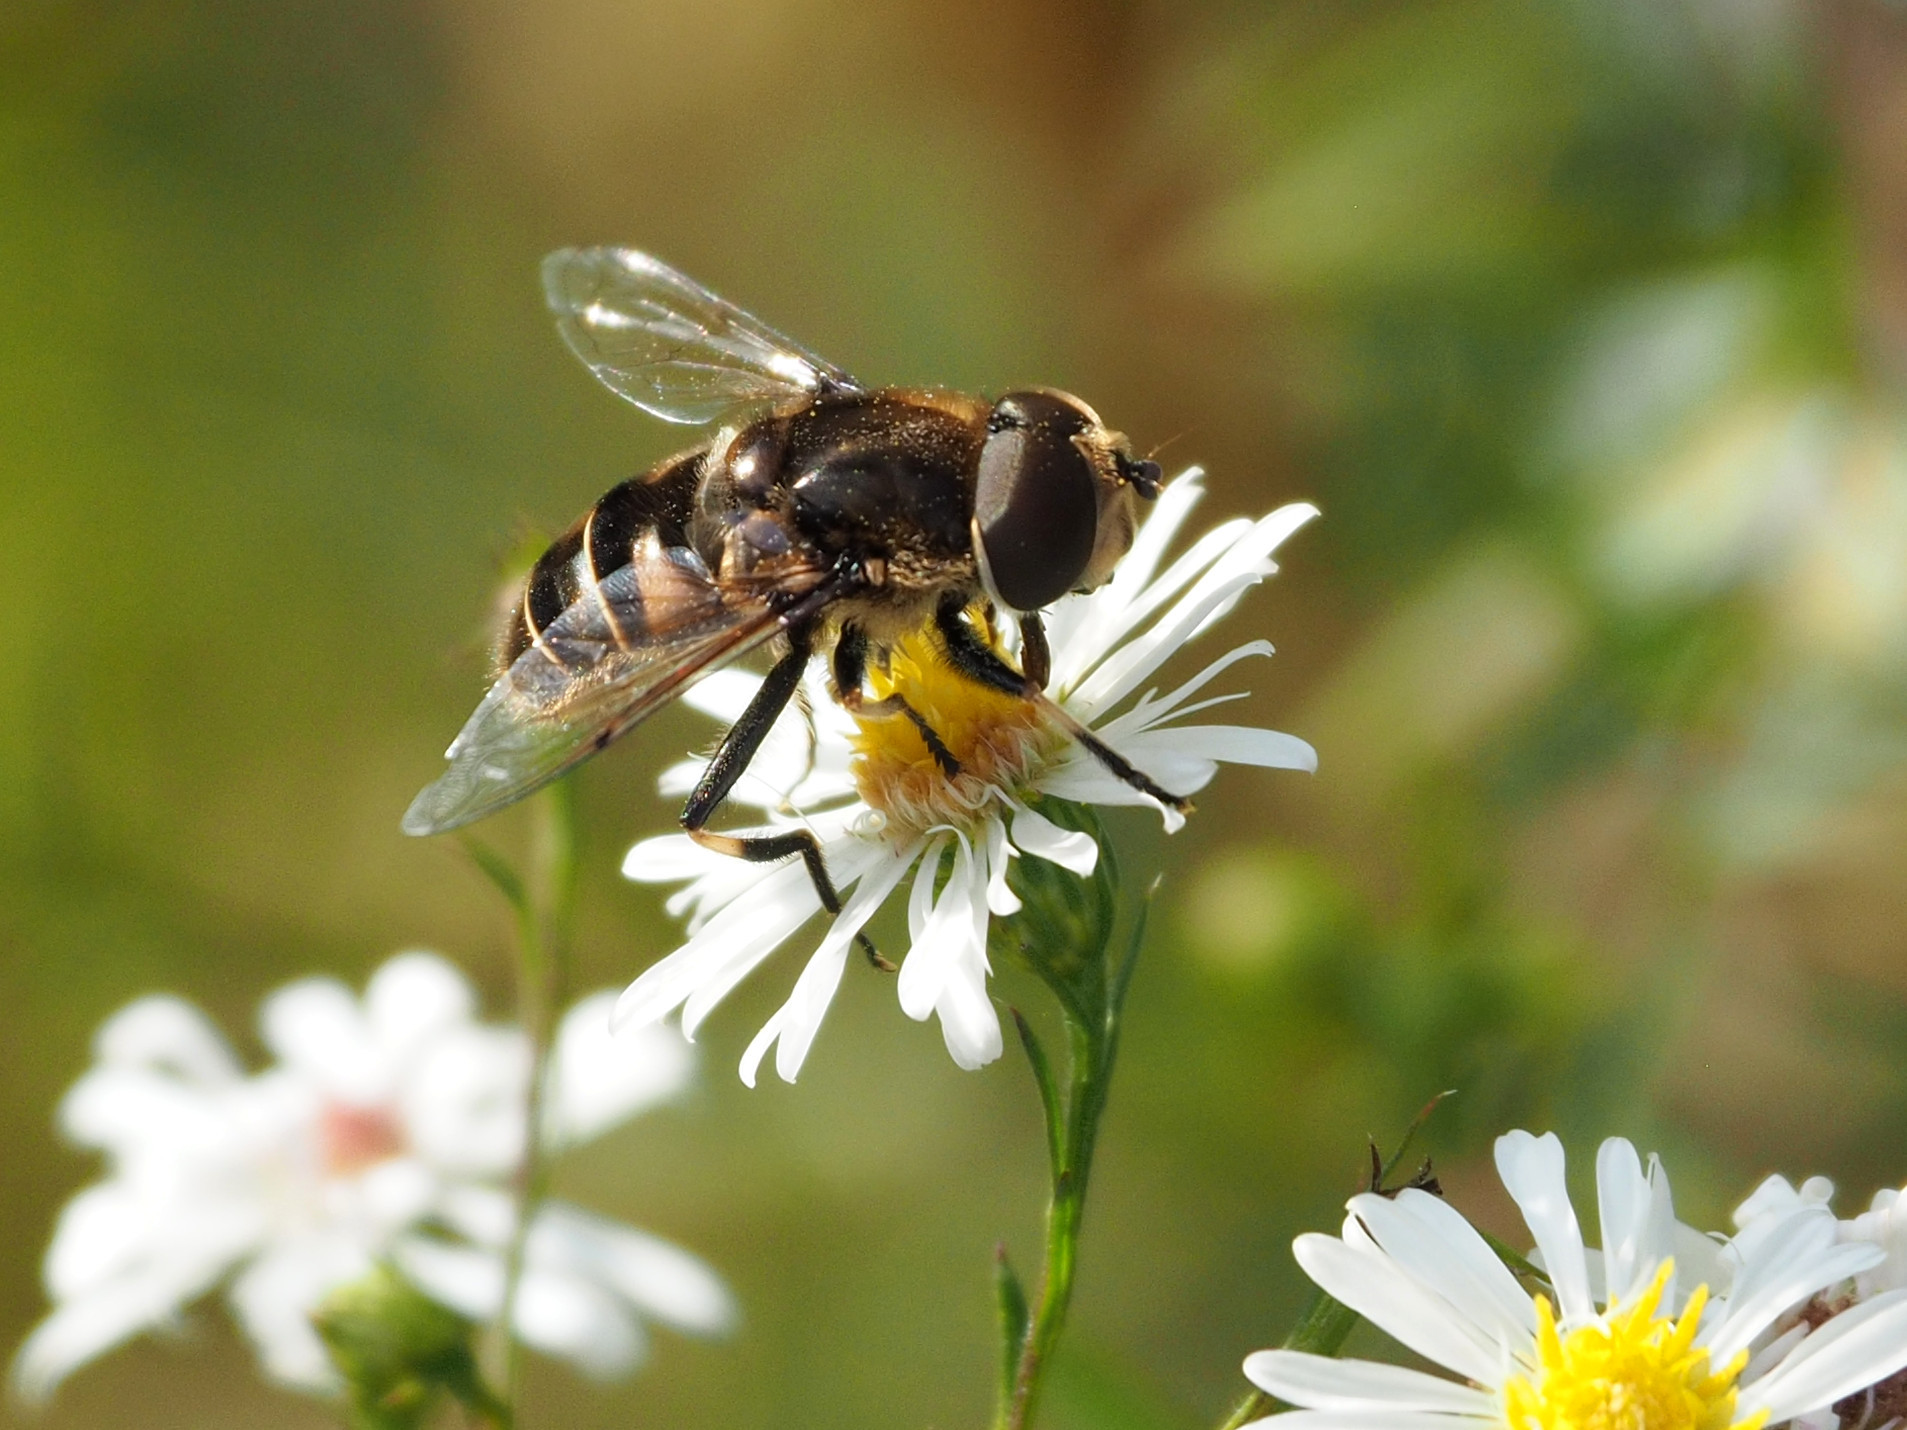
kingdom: Animalia
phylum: Arthropoda
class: Insecta
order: Diptera
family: Syrphidae
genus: Eristalis
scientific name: Eristalis dimidiata
